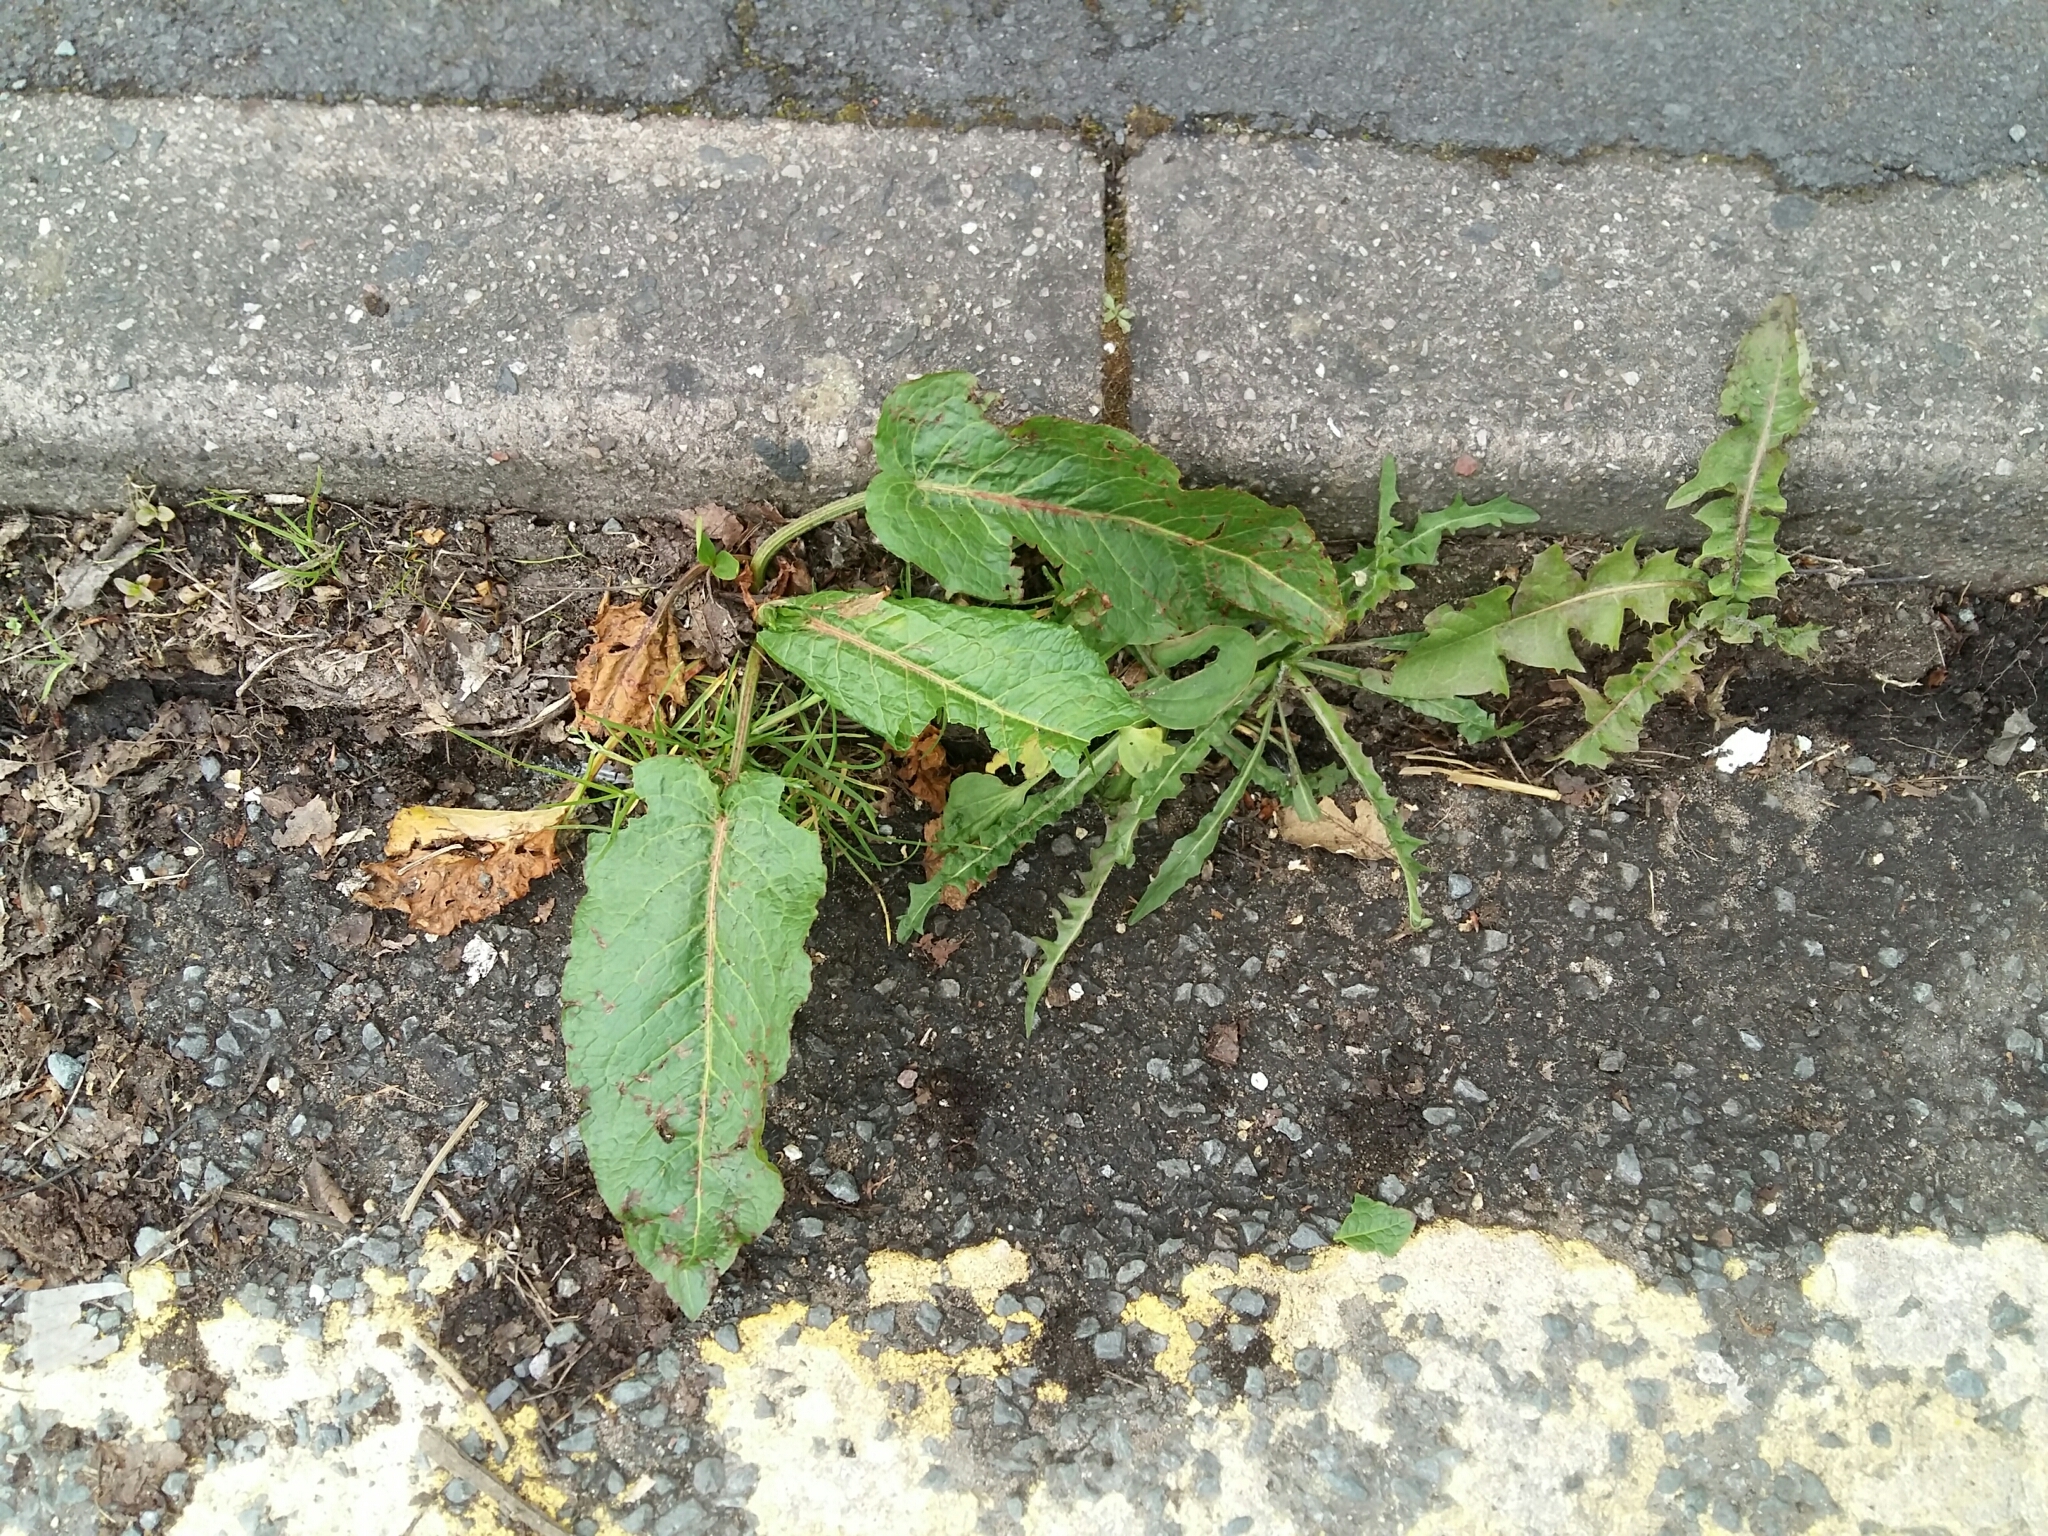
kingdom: Plantae
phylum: Tracheophyta
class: Magnoliopsida
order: Caryophyllales
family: Polygonaceae
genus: Rumex
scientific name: Rumex obtusifolius
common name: Bitter dock
